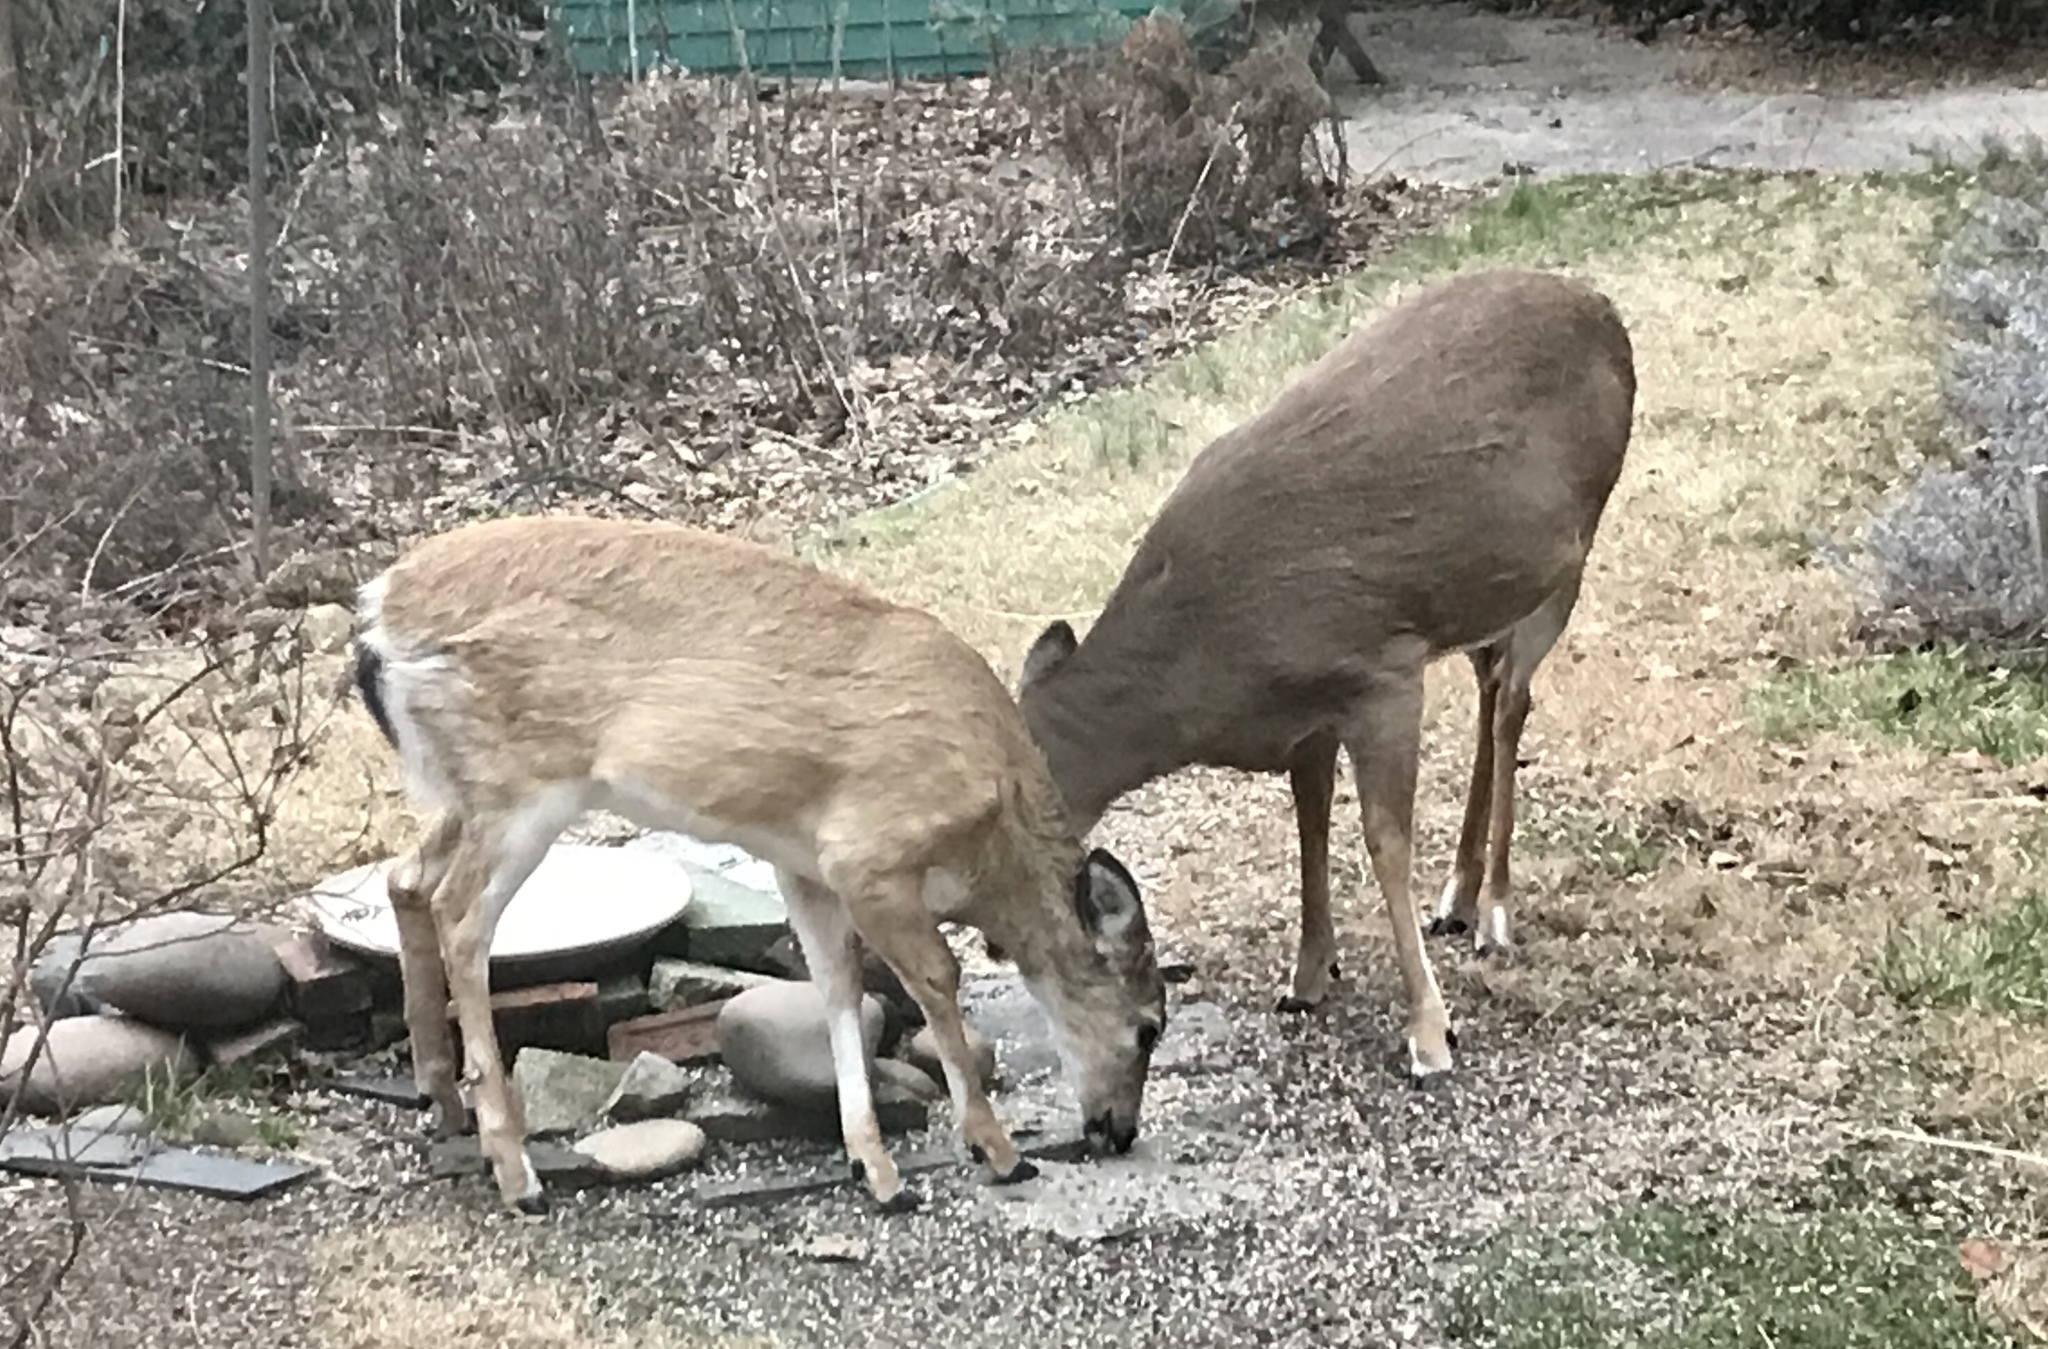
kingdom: Animalia
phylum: Chordata
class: Mammalia
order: Artiodactyla
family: Cervidae
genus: Odocoileus
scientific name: Odocoileus virginianus
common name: White-tailed deer
